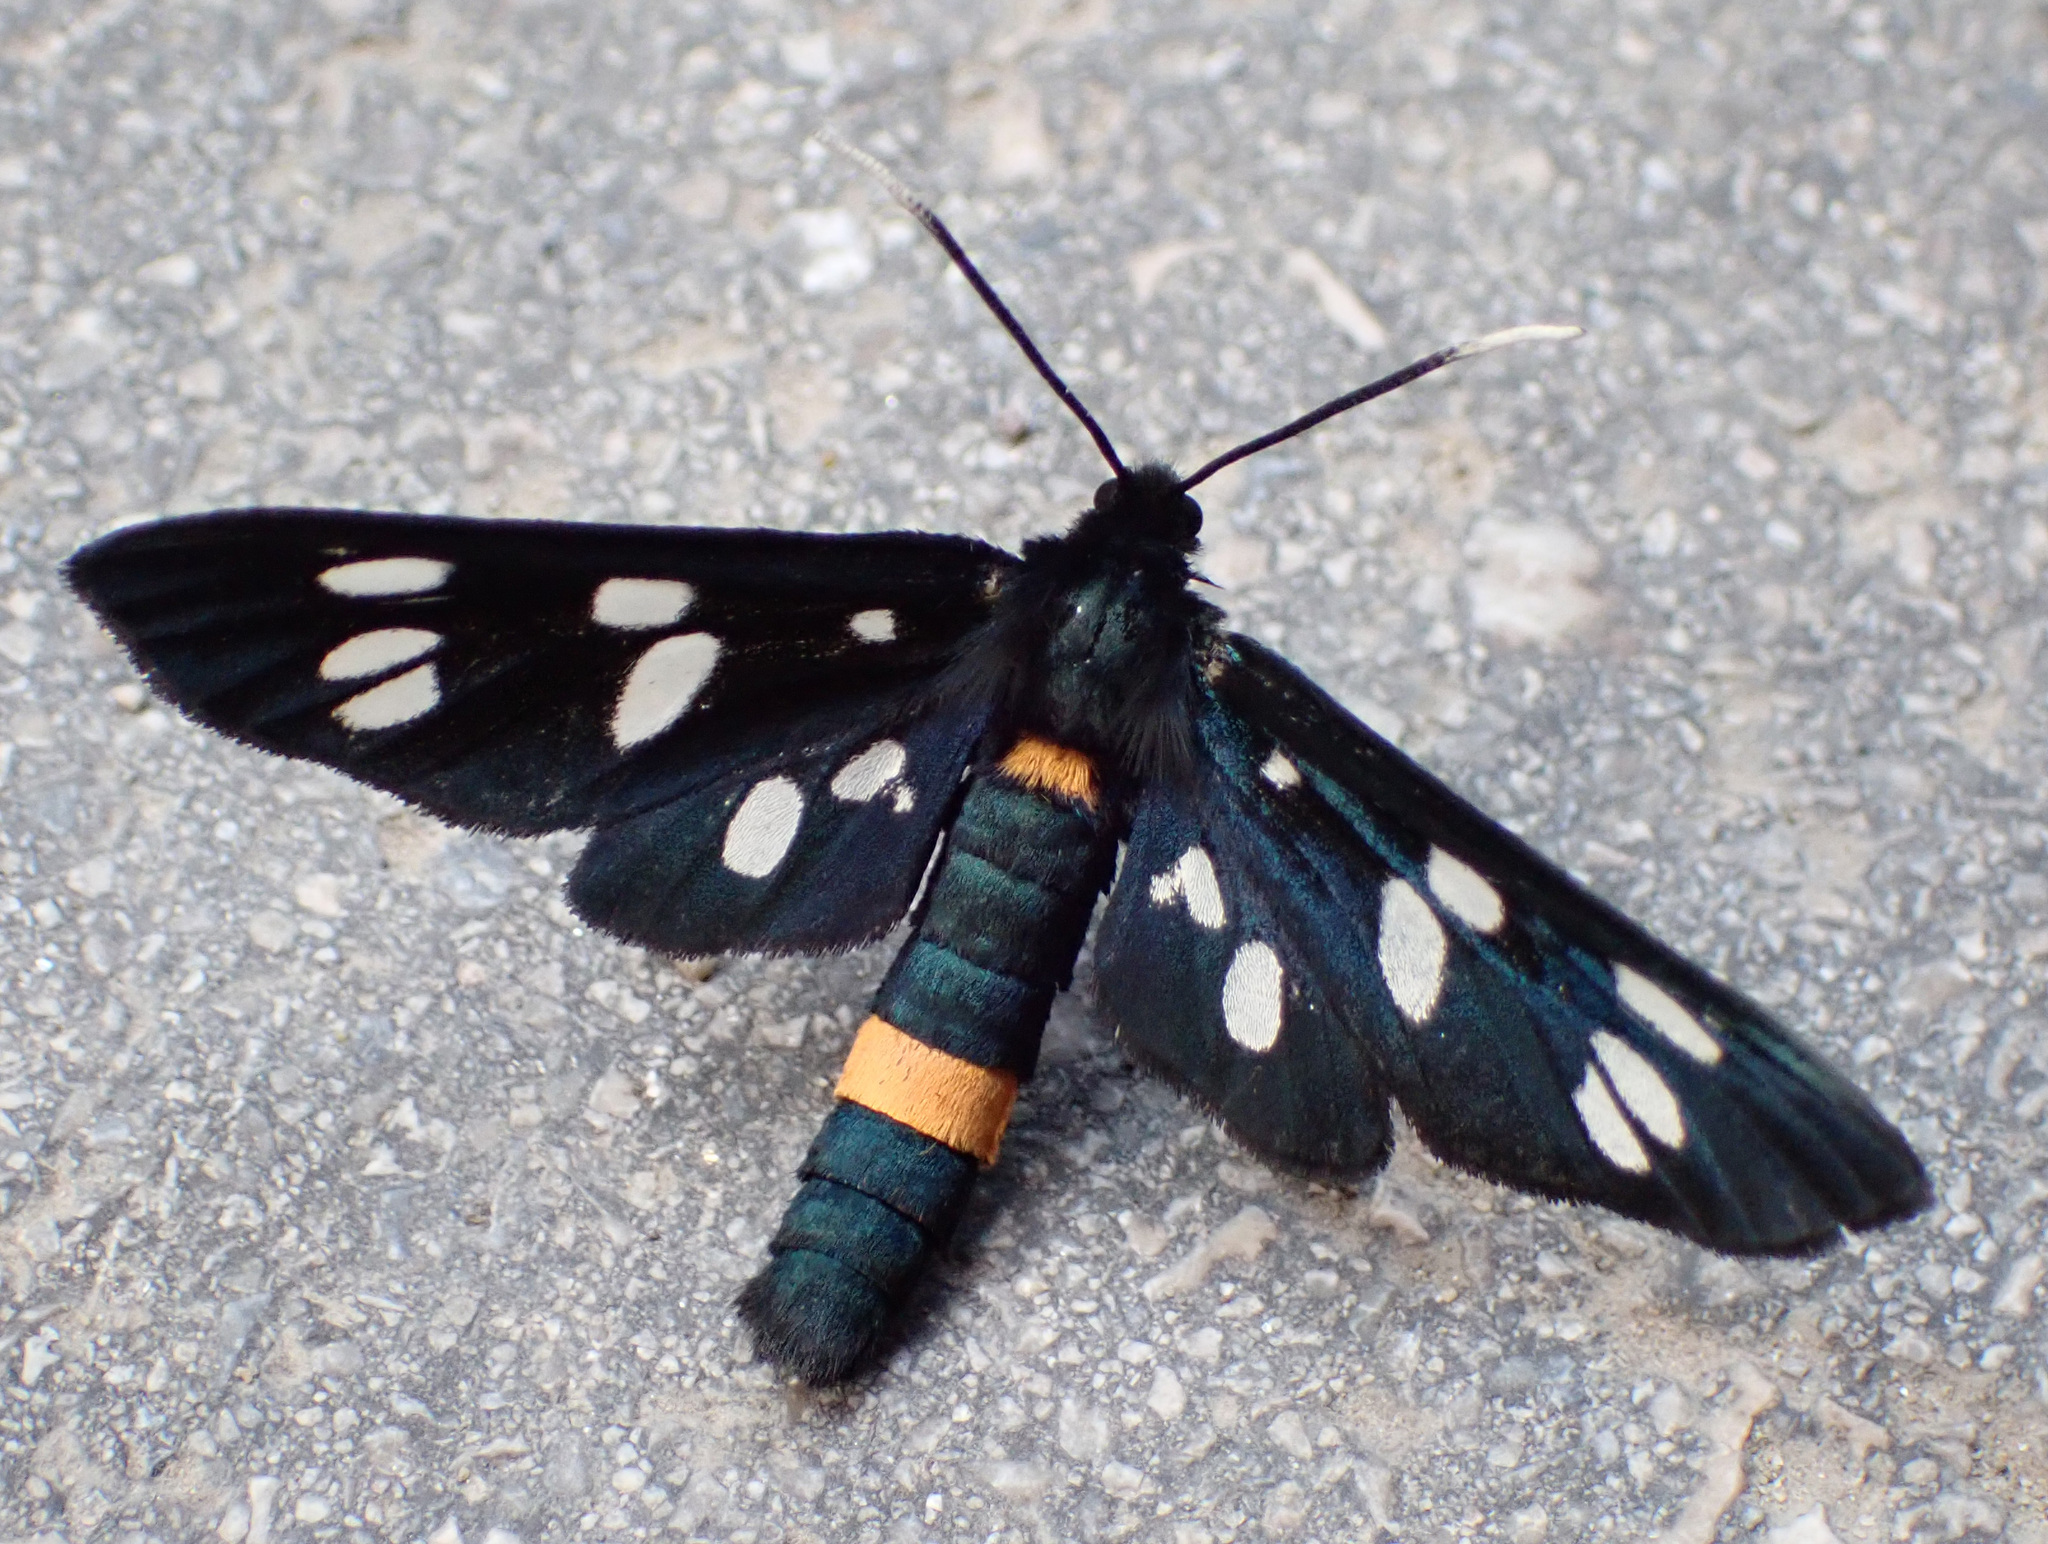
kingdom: Animalia
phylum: Arthropoda
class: Insecta
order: Lepidoptera
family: Erebidae
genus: Amata
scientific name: Amata phegea
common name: Nine-spotted
